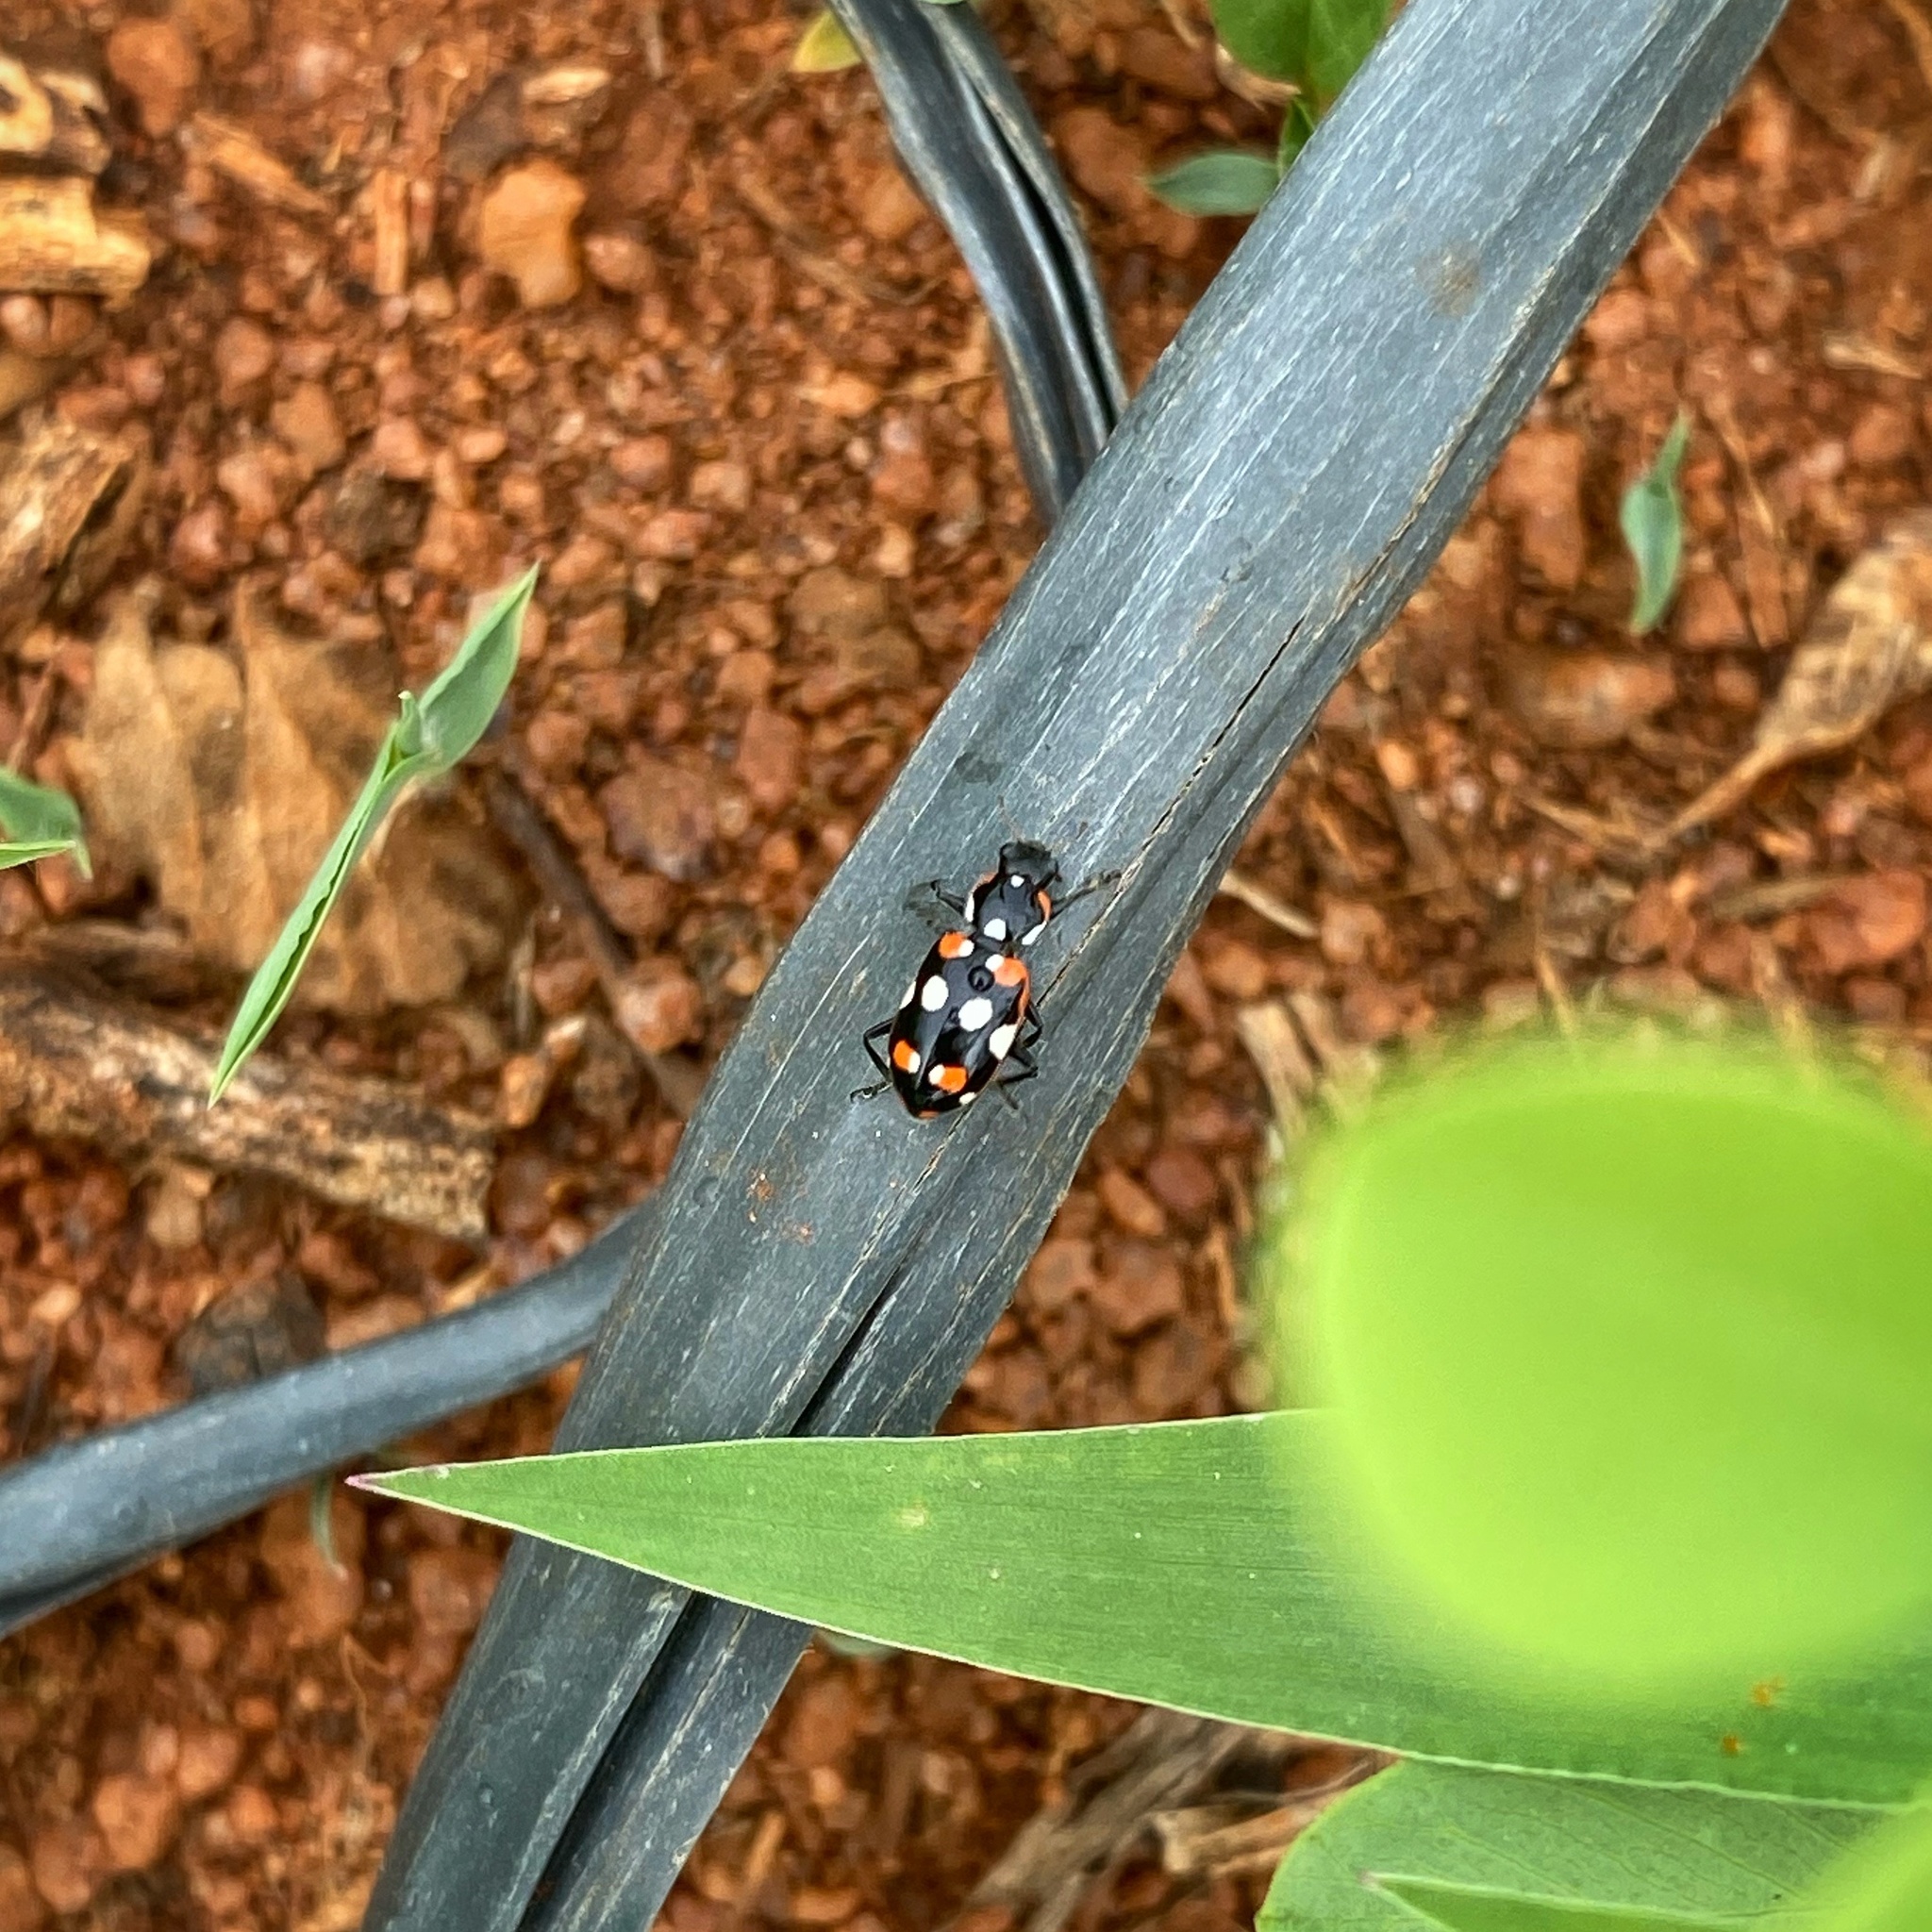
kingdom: Animalia
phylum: Arthropoda
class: Insecta
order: Coleoptera
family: Coccinellidae
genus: Eriopis
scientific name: Eriopis connexa
